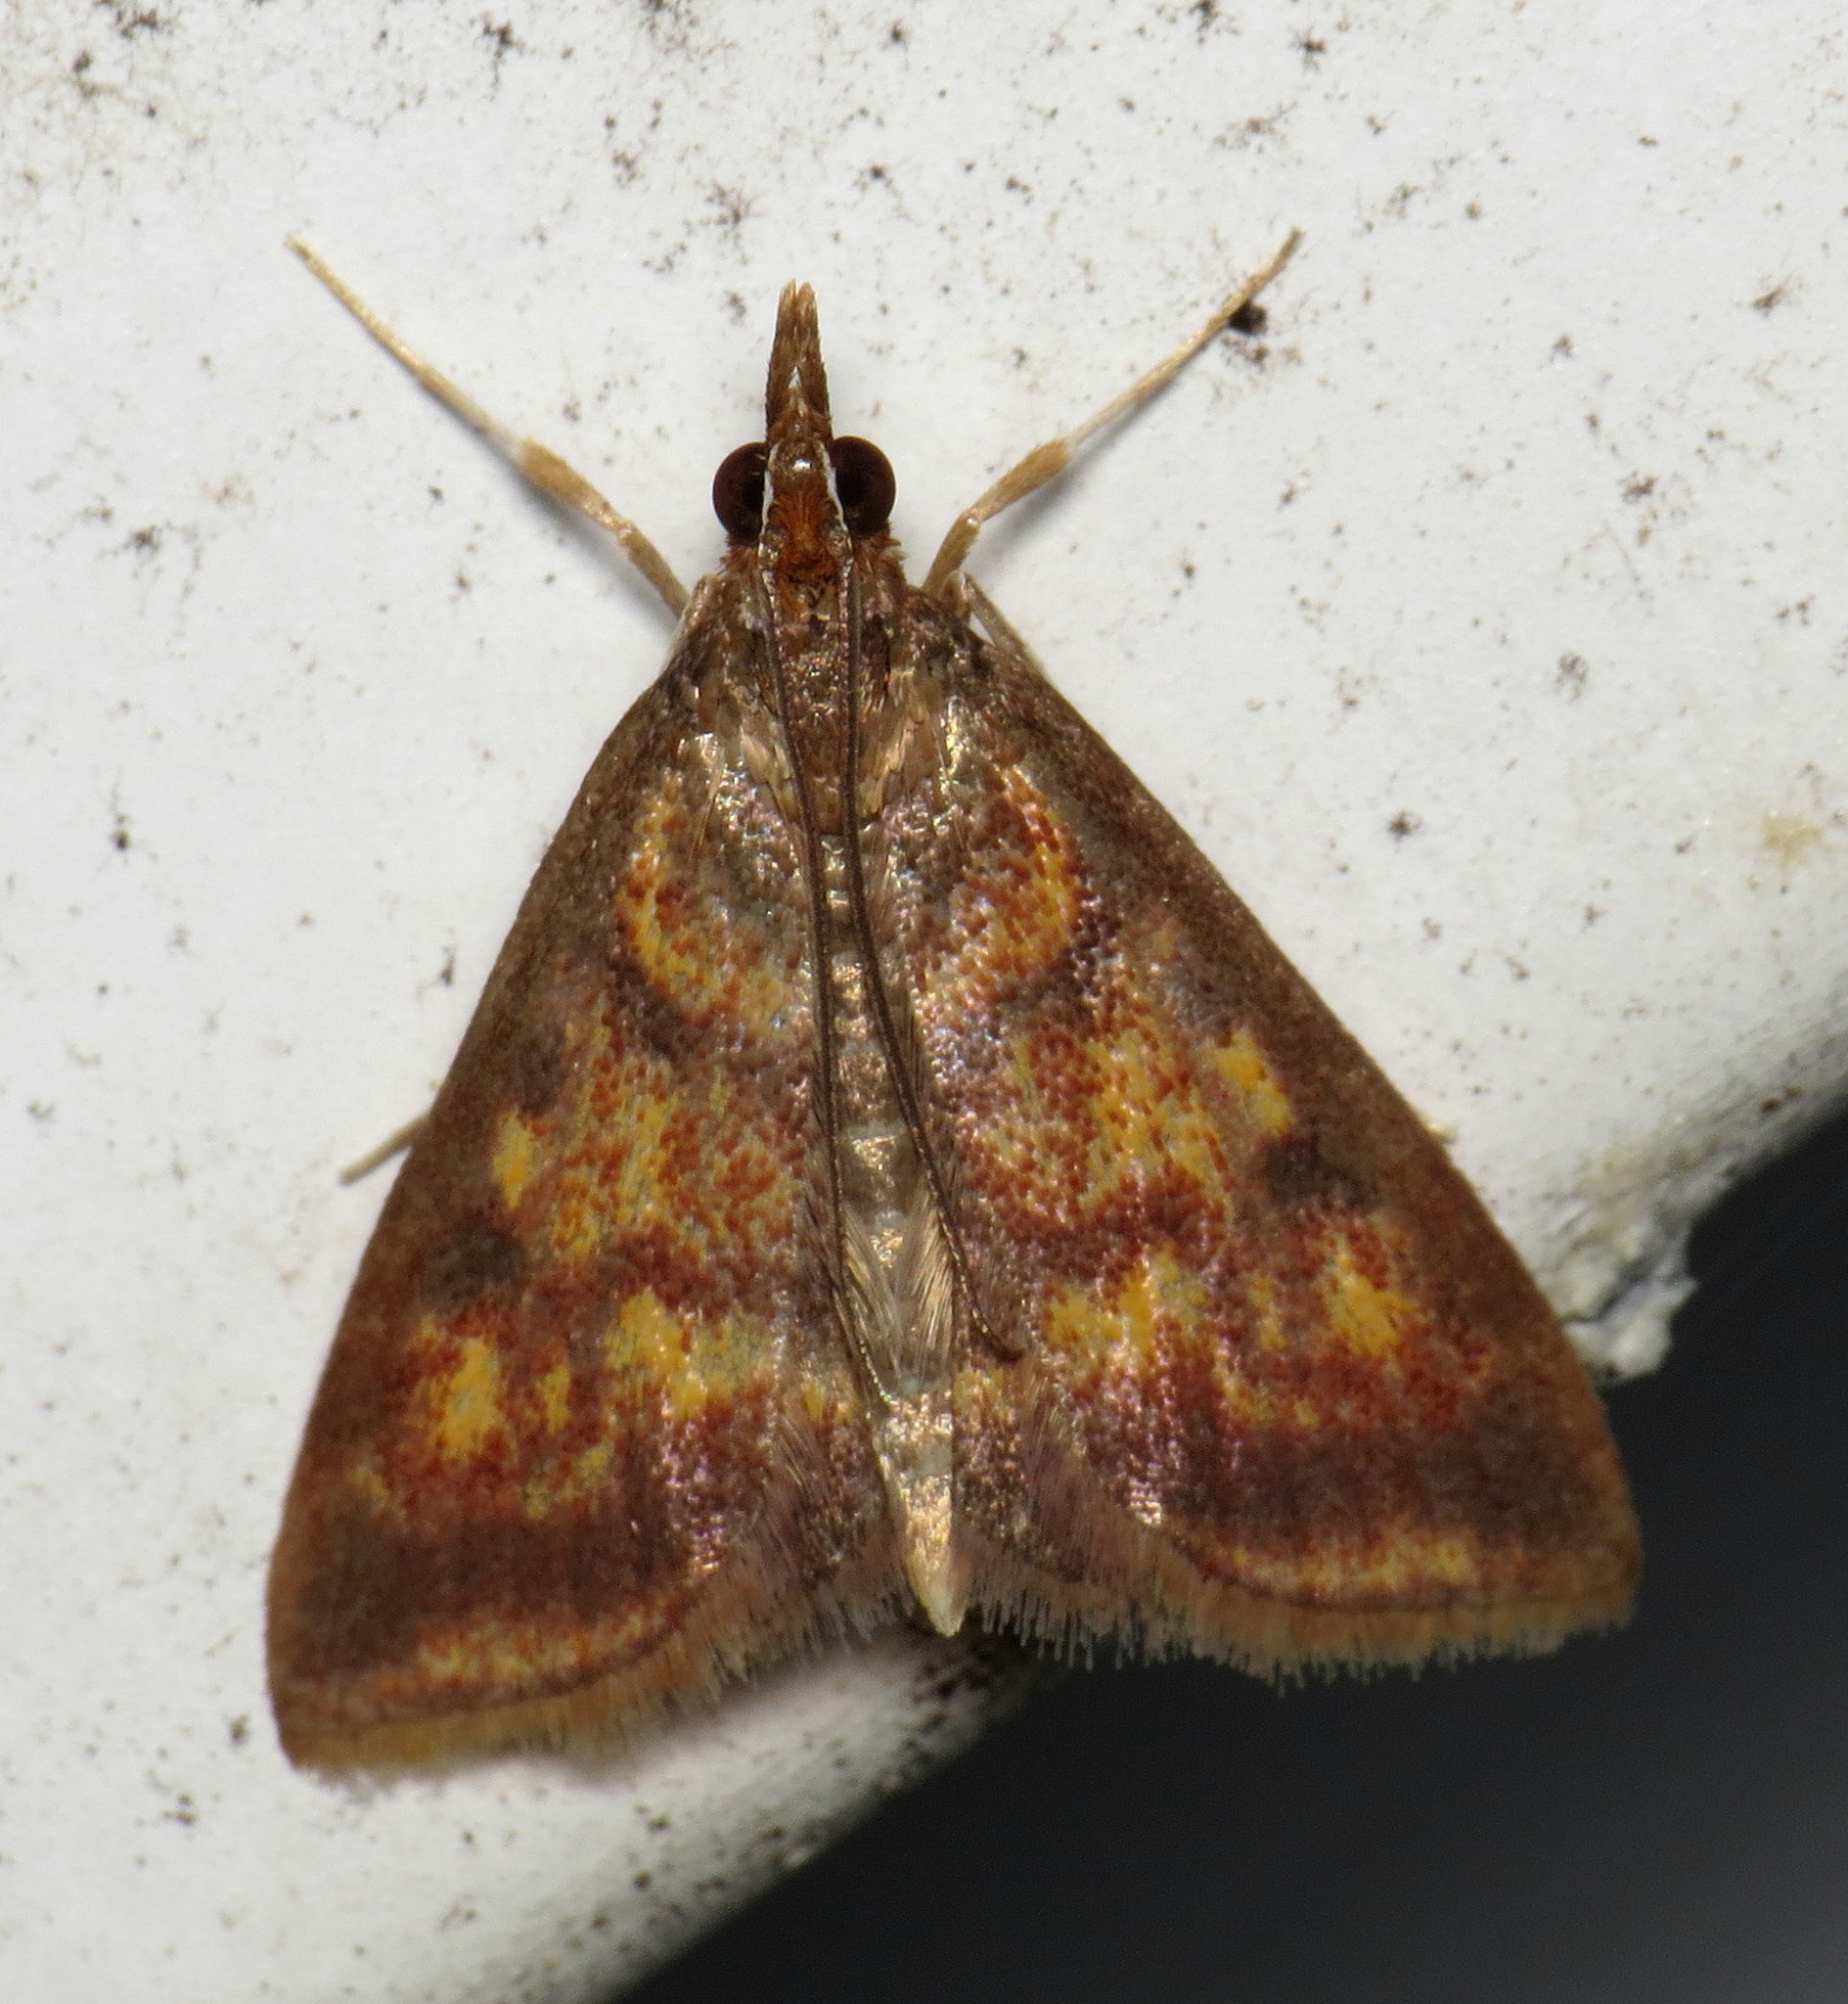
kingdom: Animalia
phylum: Arthropoda
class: Insecta
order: Lepidoptera
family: Crambidae
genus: Pyrausta
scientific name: Pyrausta acrionalis
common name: Mint-loving pyrausta moth
